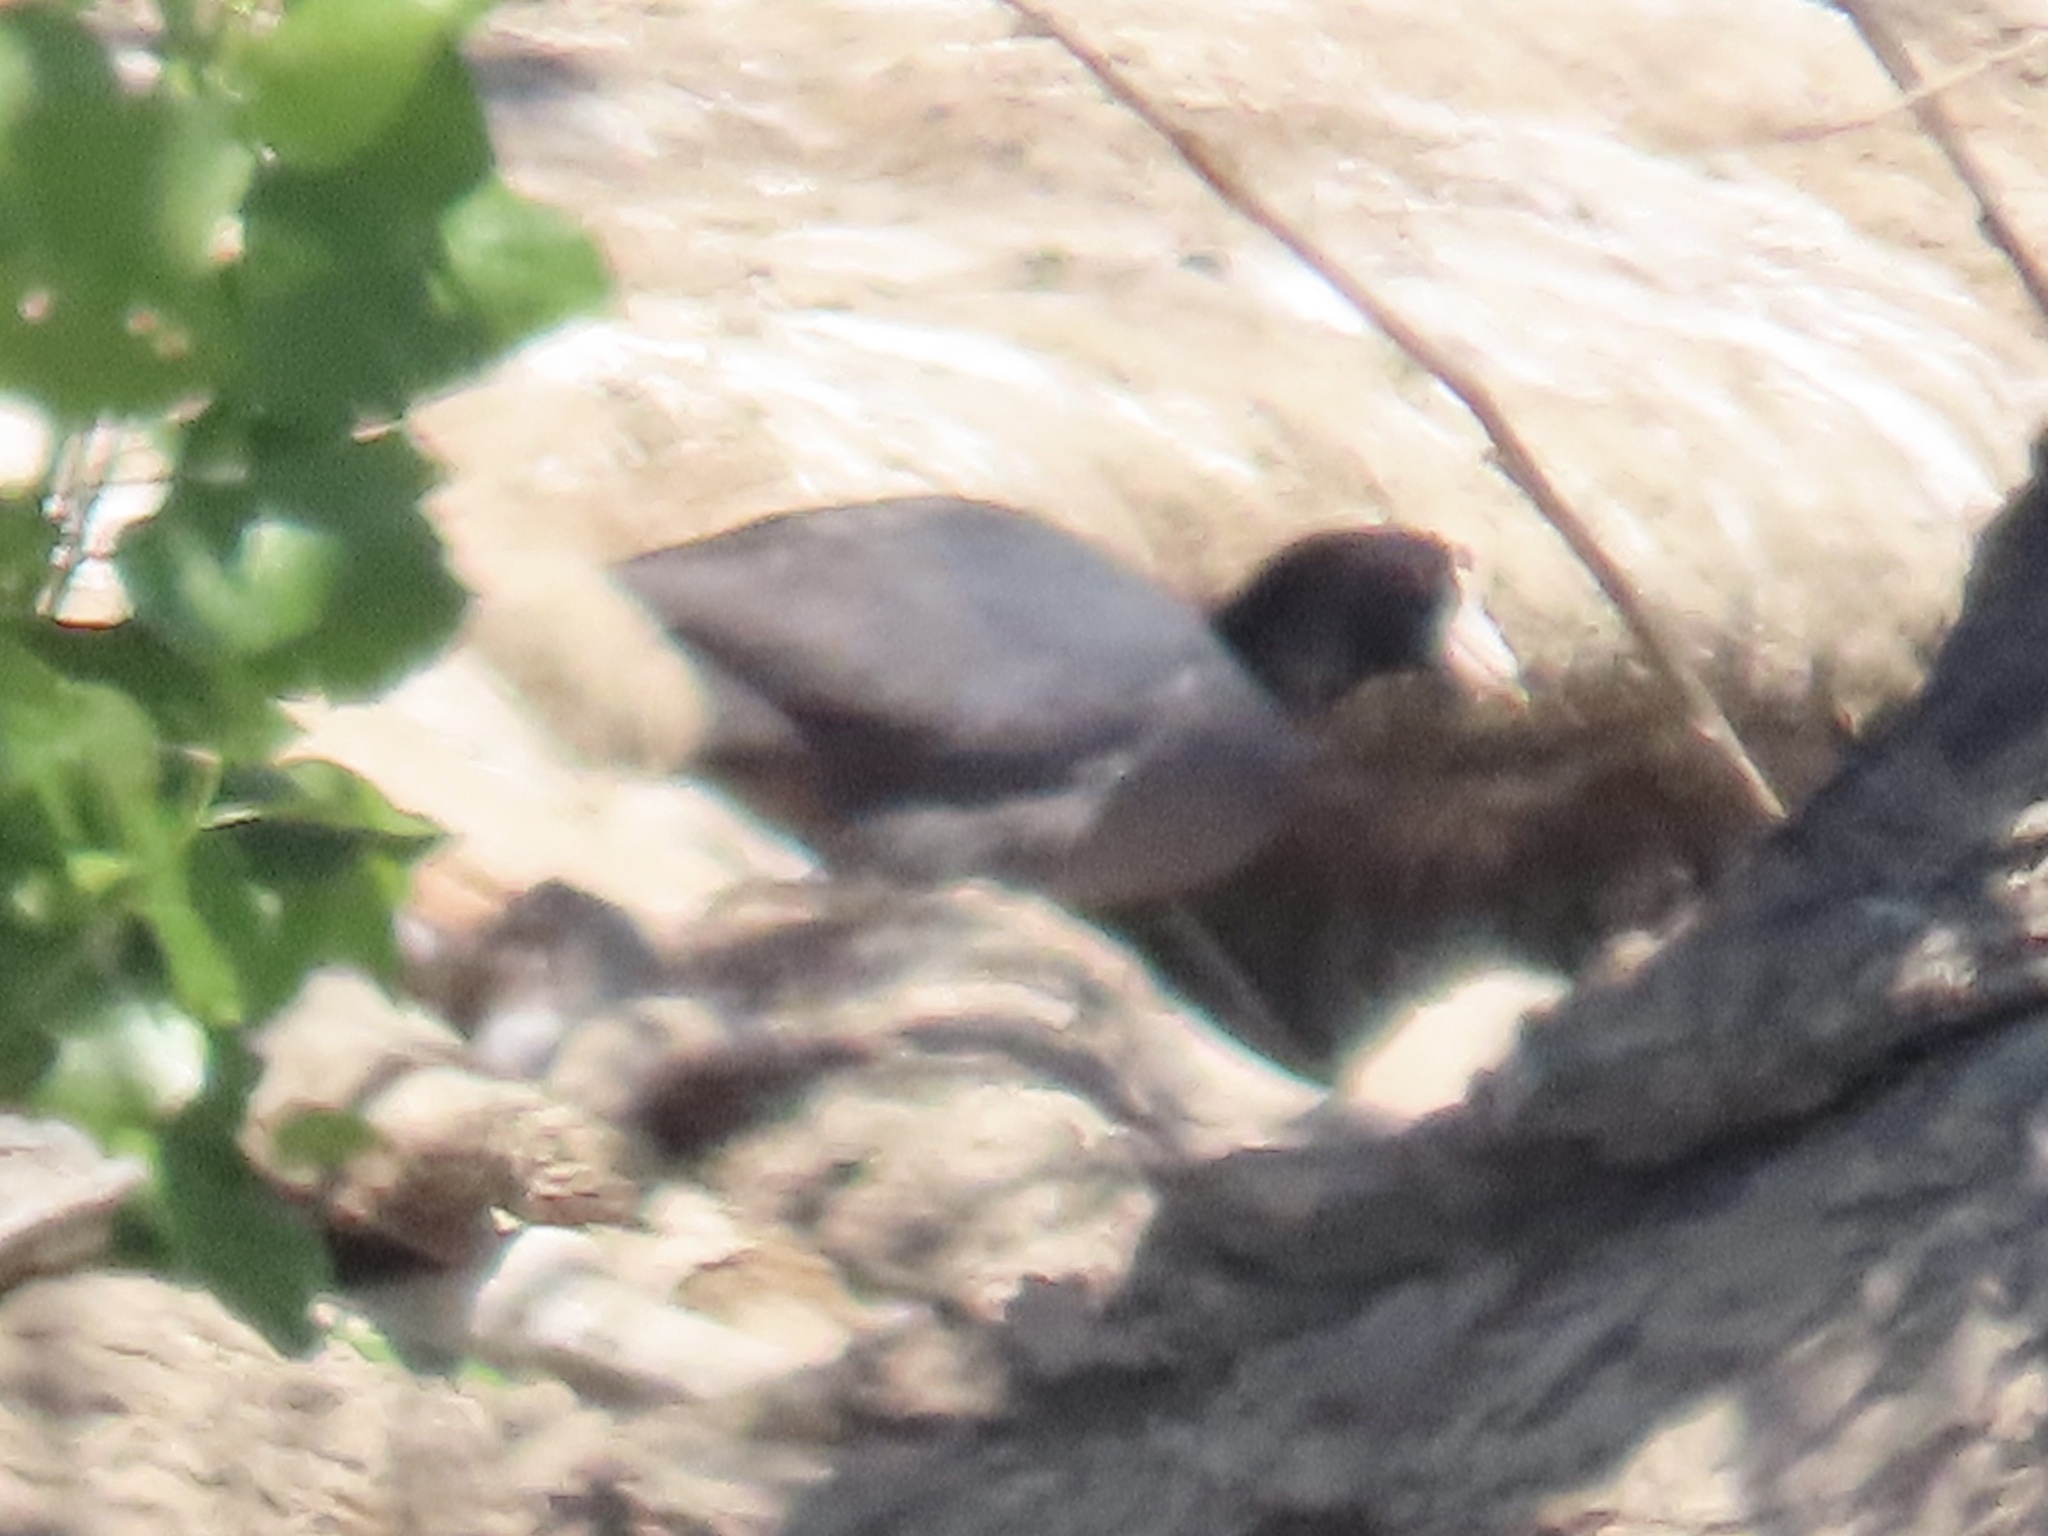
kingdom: Animalia
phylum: Chordata
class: Aves
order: Gruiformes
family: Rallidae
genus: Fulica
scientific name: Fulica americana
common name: American coot
